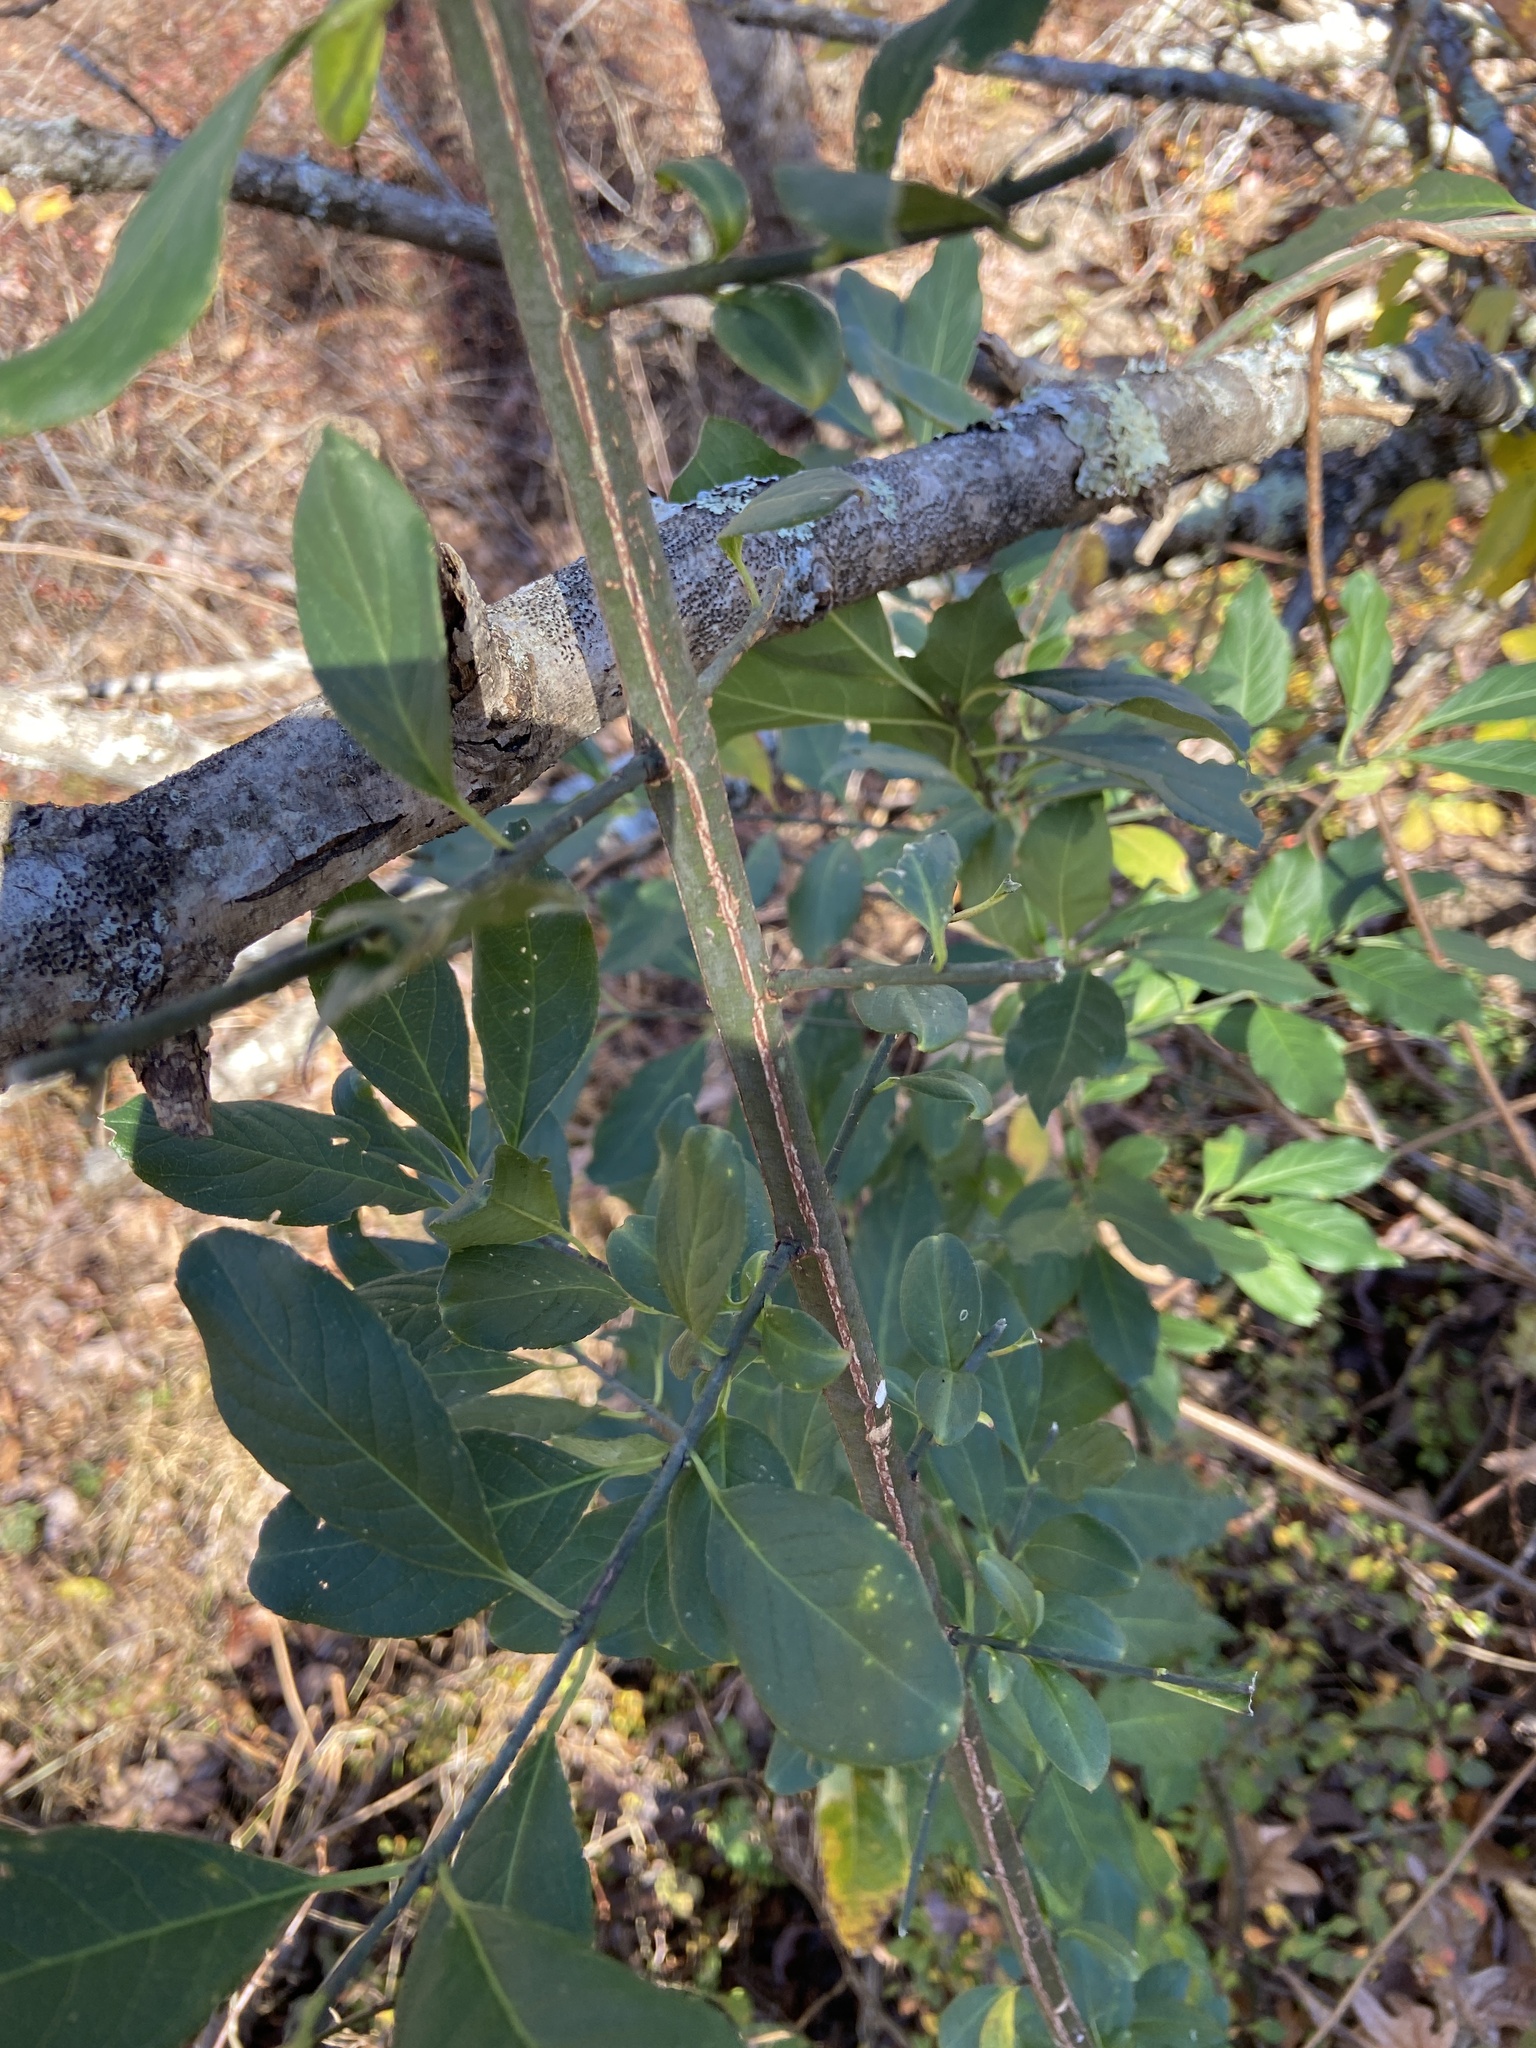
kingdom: Plantae
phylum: Tracheophyta
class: Magnoliopsida
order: Celastrales
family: Celastraceae
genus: Euonymus
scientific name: Euonymus alatus
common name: Winged euonymus
